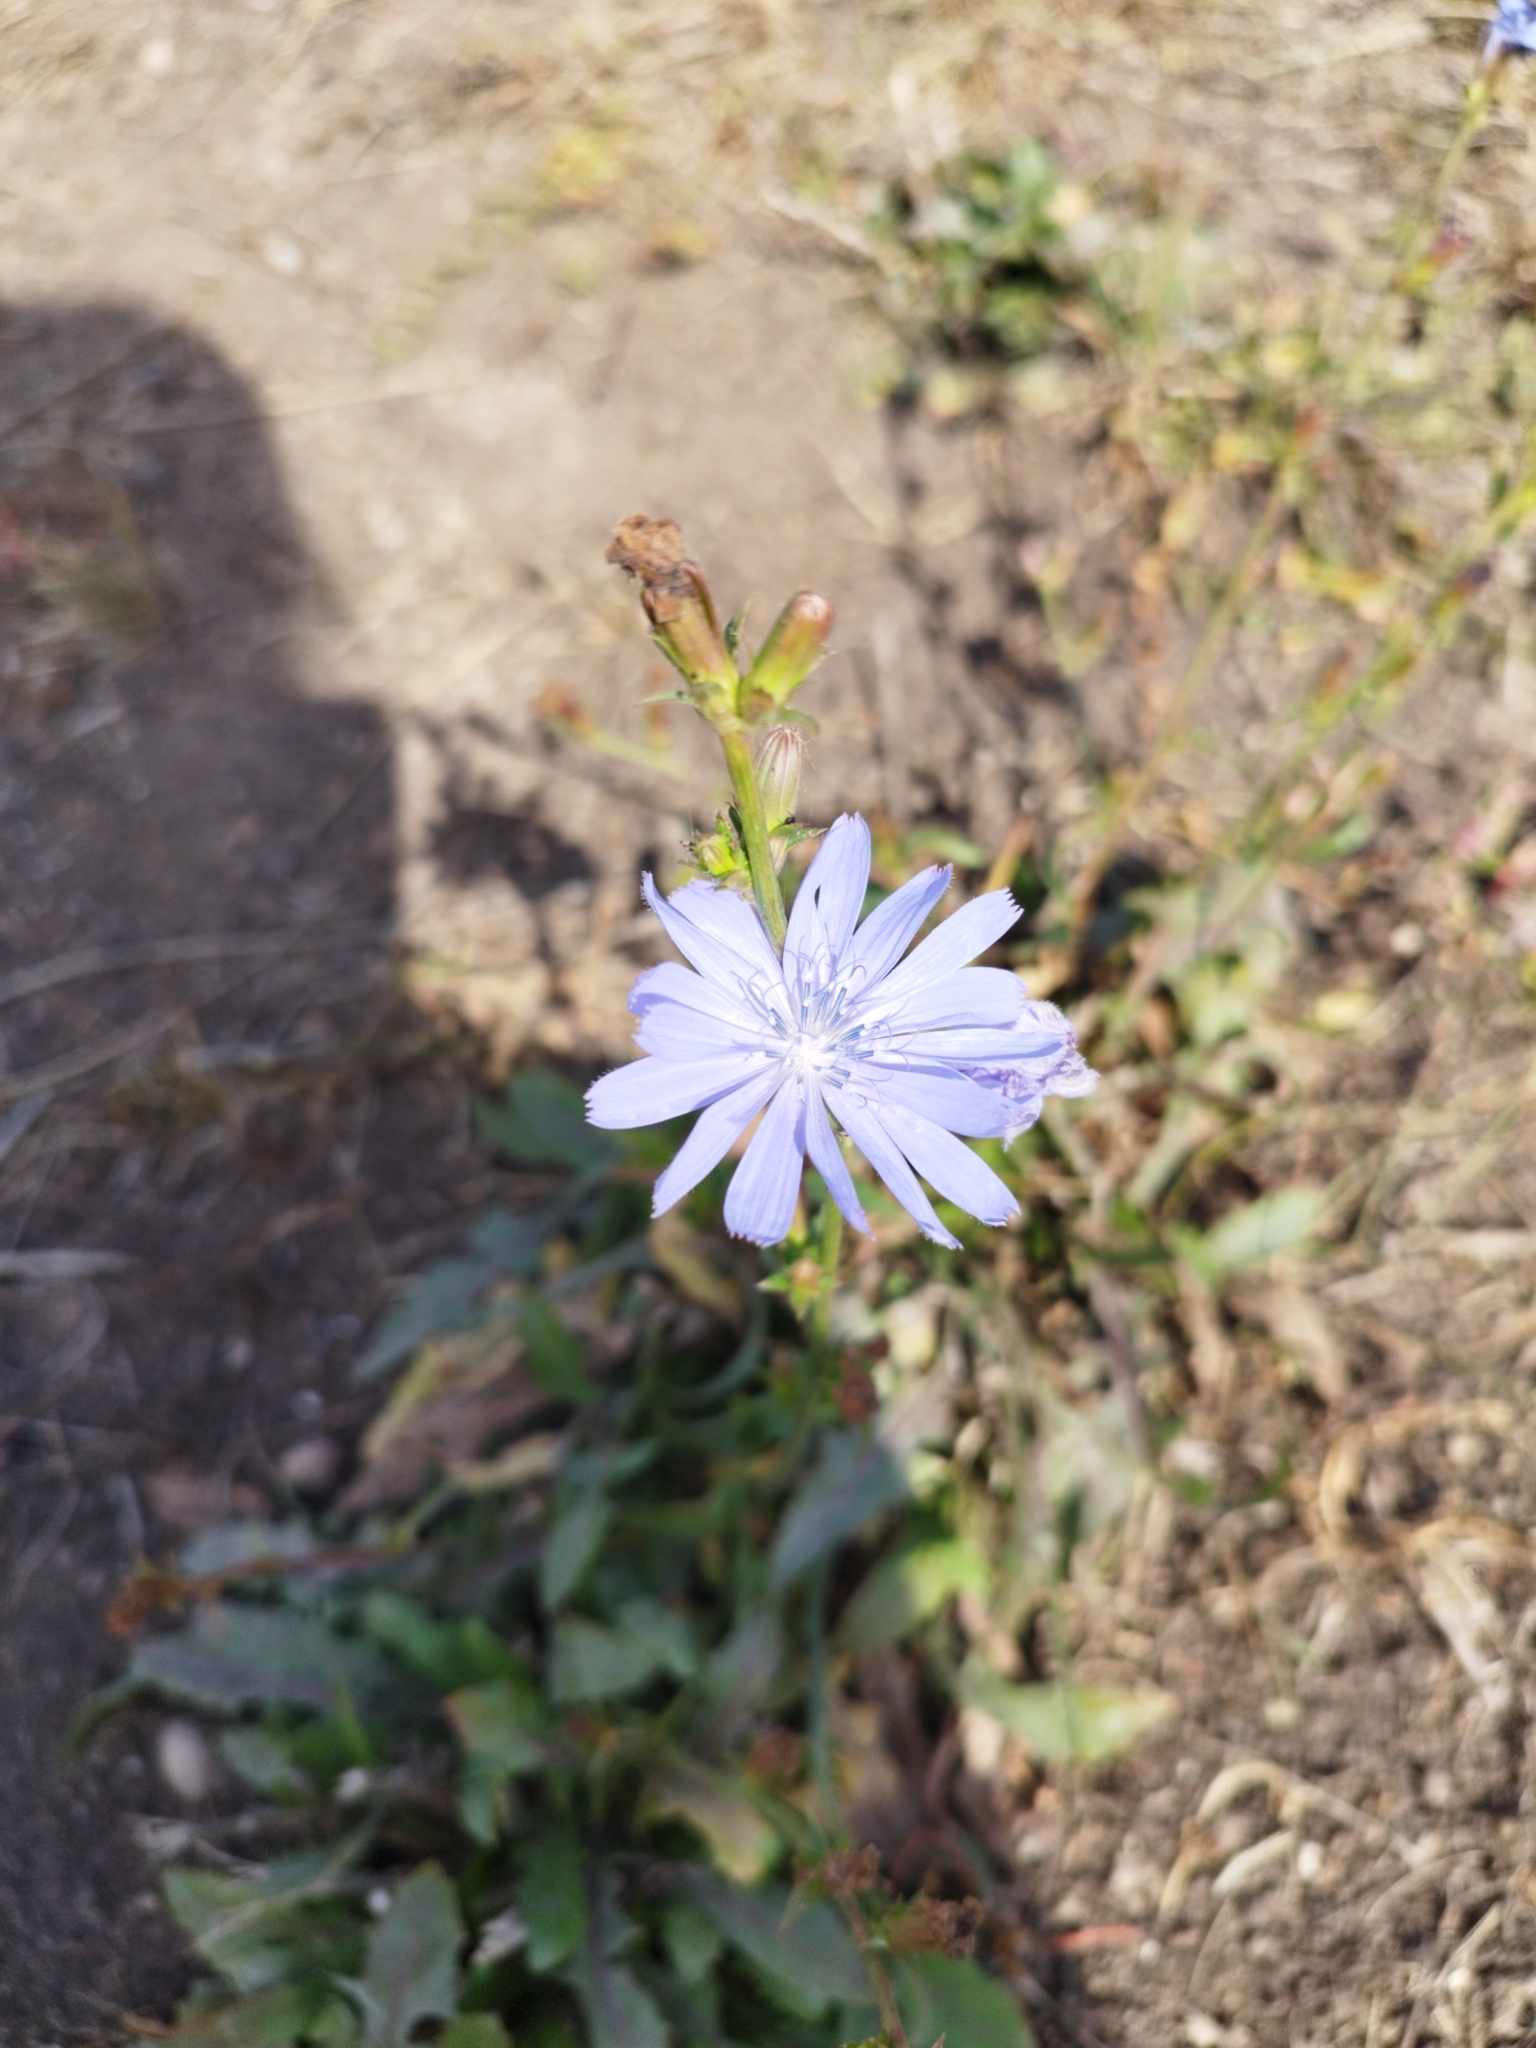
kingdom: Plantae
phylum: Tracheophyta
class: Magnoliopsida
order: Asterales
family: Asteraceae
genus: Cichorium
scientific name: Cichorium intybus
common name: Chicory
